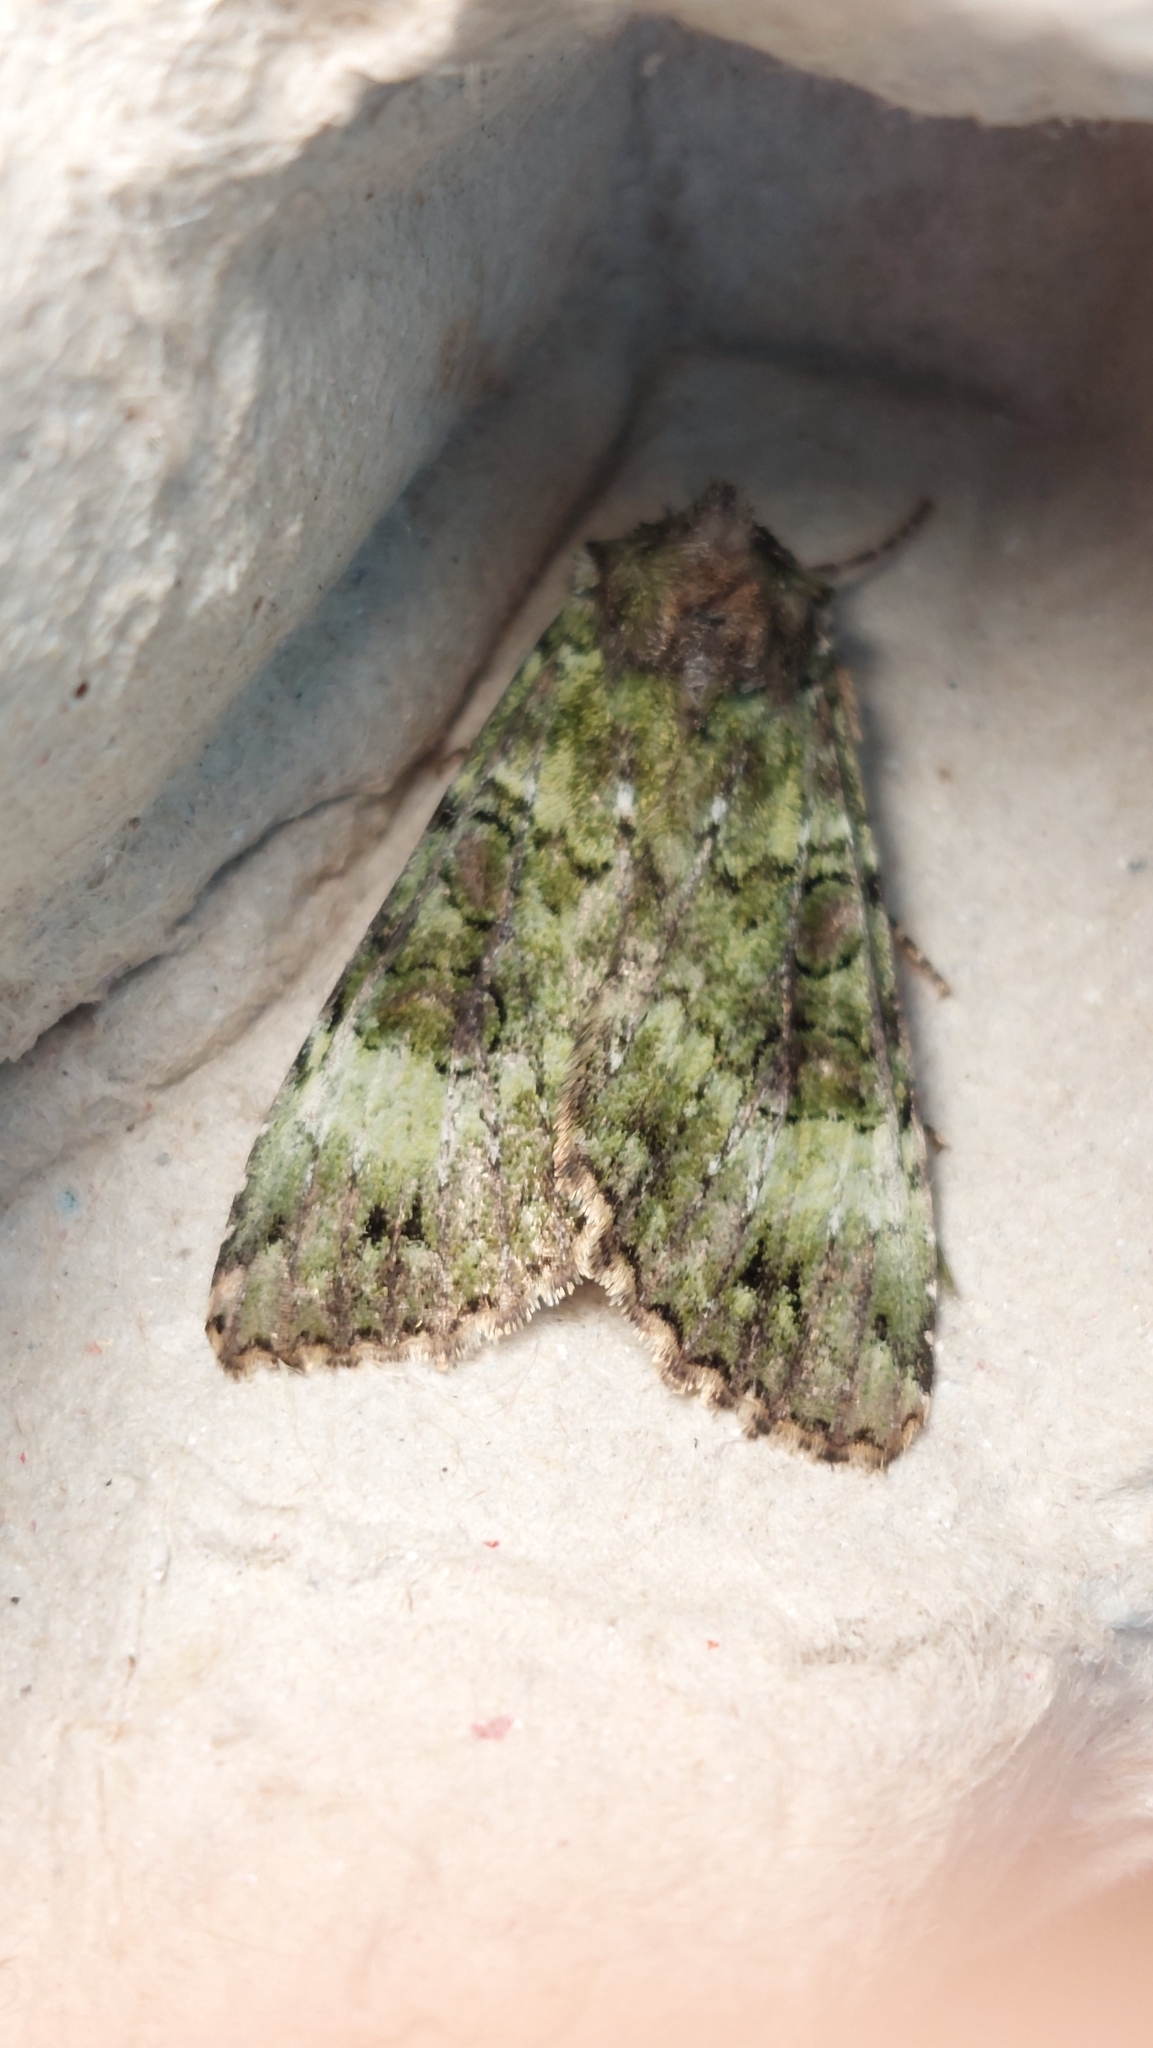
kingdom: Animalia
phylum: Arthropoda
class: Insecta
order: Lepidoptera
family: Noctuidae
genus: Anaplectoides
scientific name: Anaplectoides prasina
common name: Green arches
